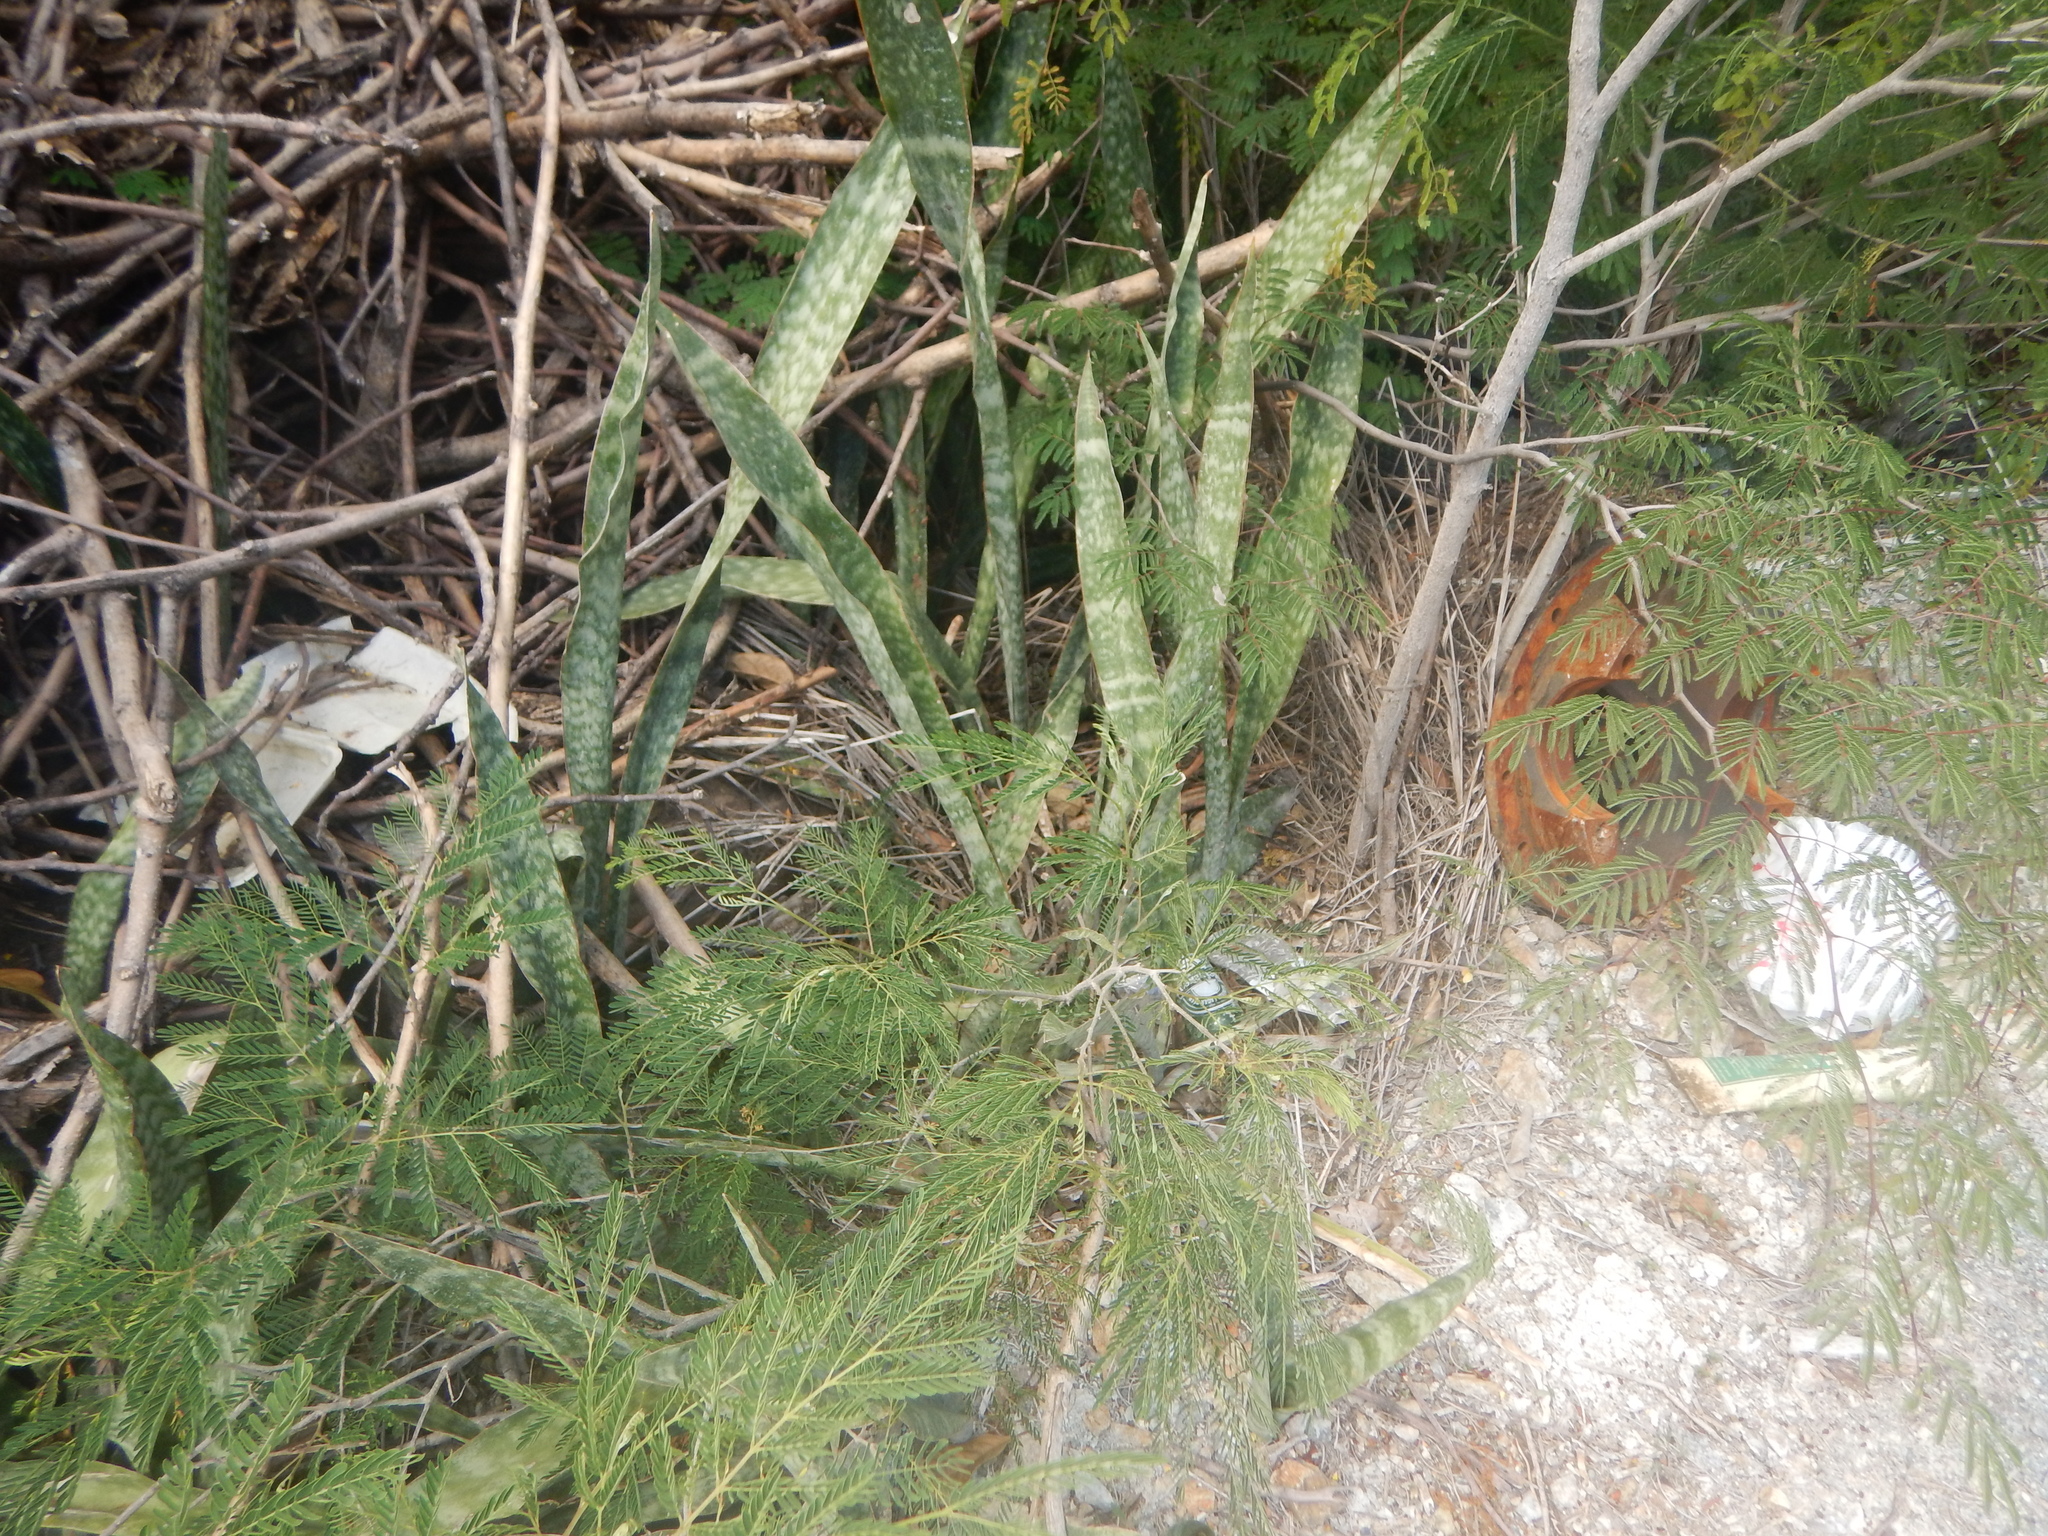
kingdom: Plantae
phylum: Tracheophyta
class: Liliopsida
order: Asparagales
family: Asparagaceae
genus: Dracaena
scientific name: Dracaena hyacinthoides
